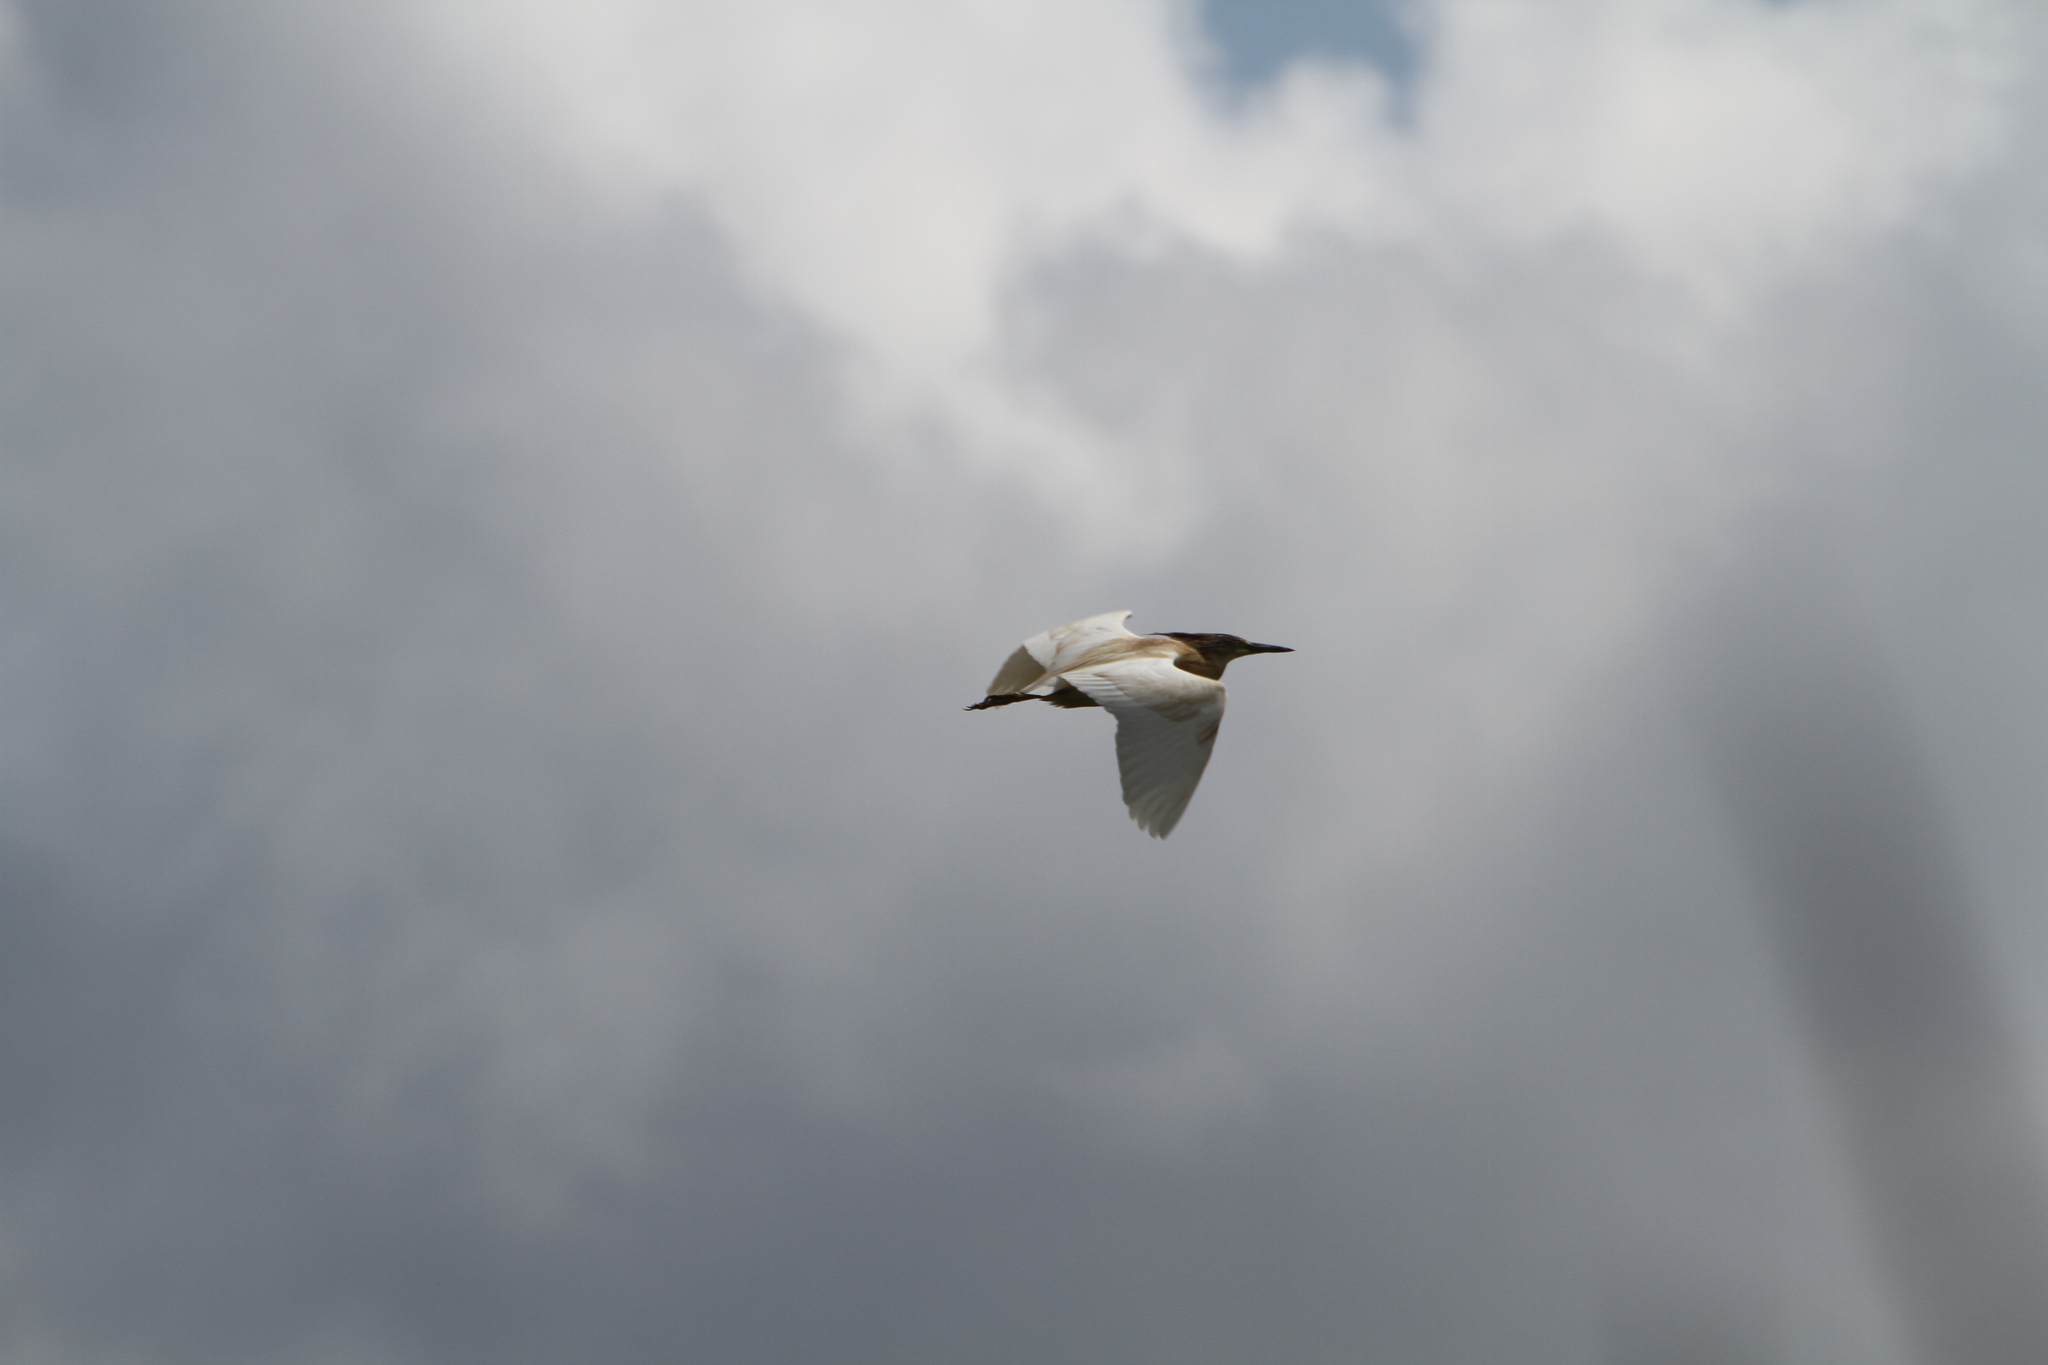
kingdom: Animalia
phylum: Chordata
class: Aves
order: Pelecaniformes
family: Ardeidae
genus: Ardeola
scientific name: Ardeola ralloides
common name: Squacco heron
